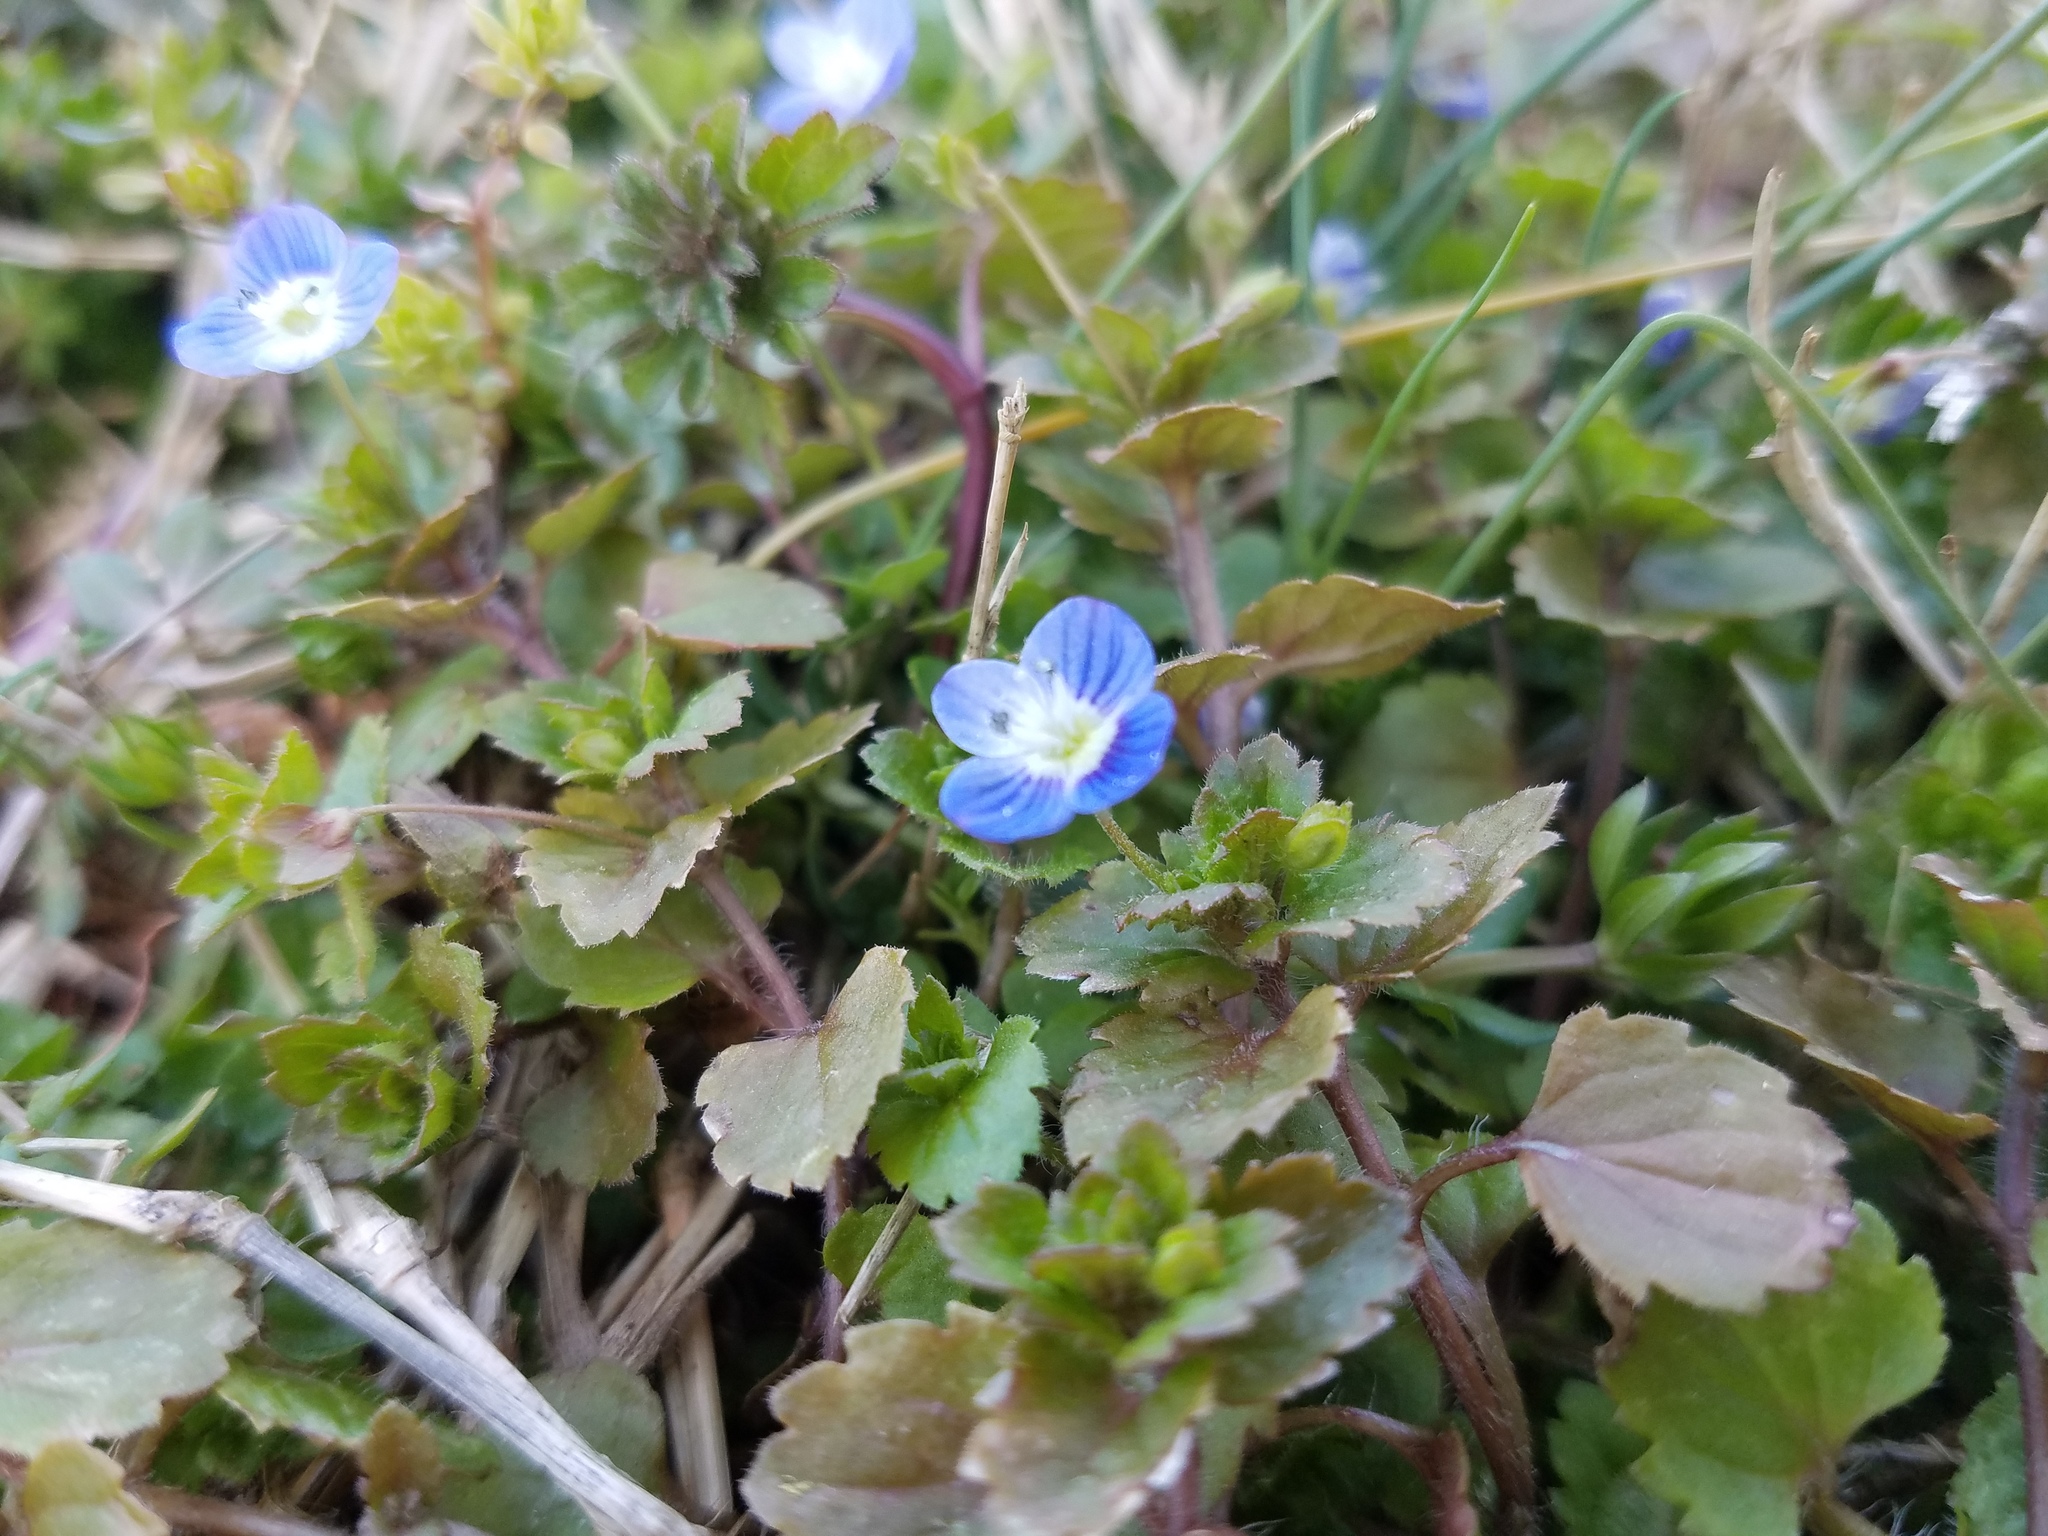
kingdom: Plantae
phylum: Tracheophyta
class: Magnoliopsida
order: Lamiales
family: Plantaginaceae
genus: Veronica
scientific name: Veronica persica
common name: Common field-speedwell
